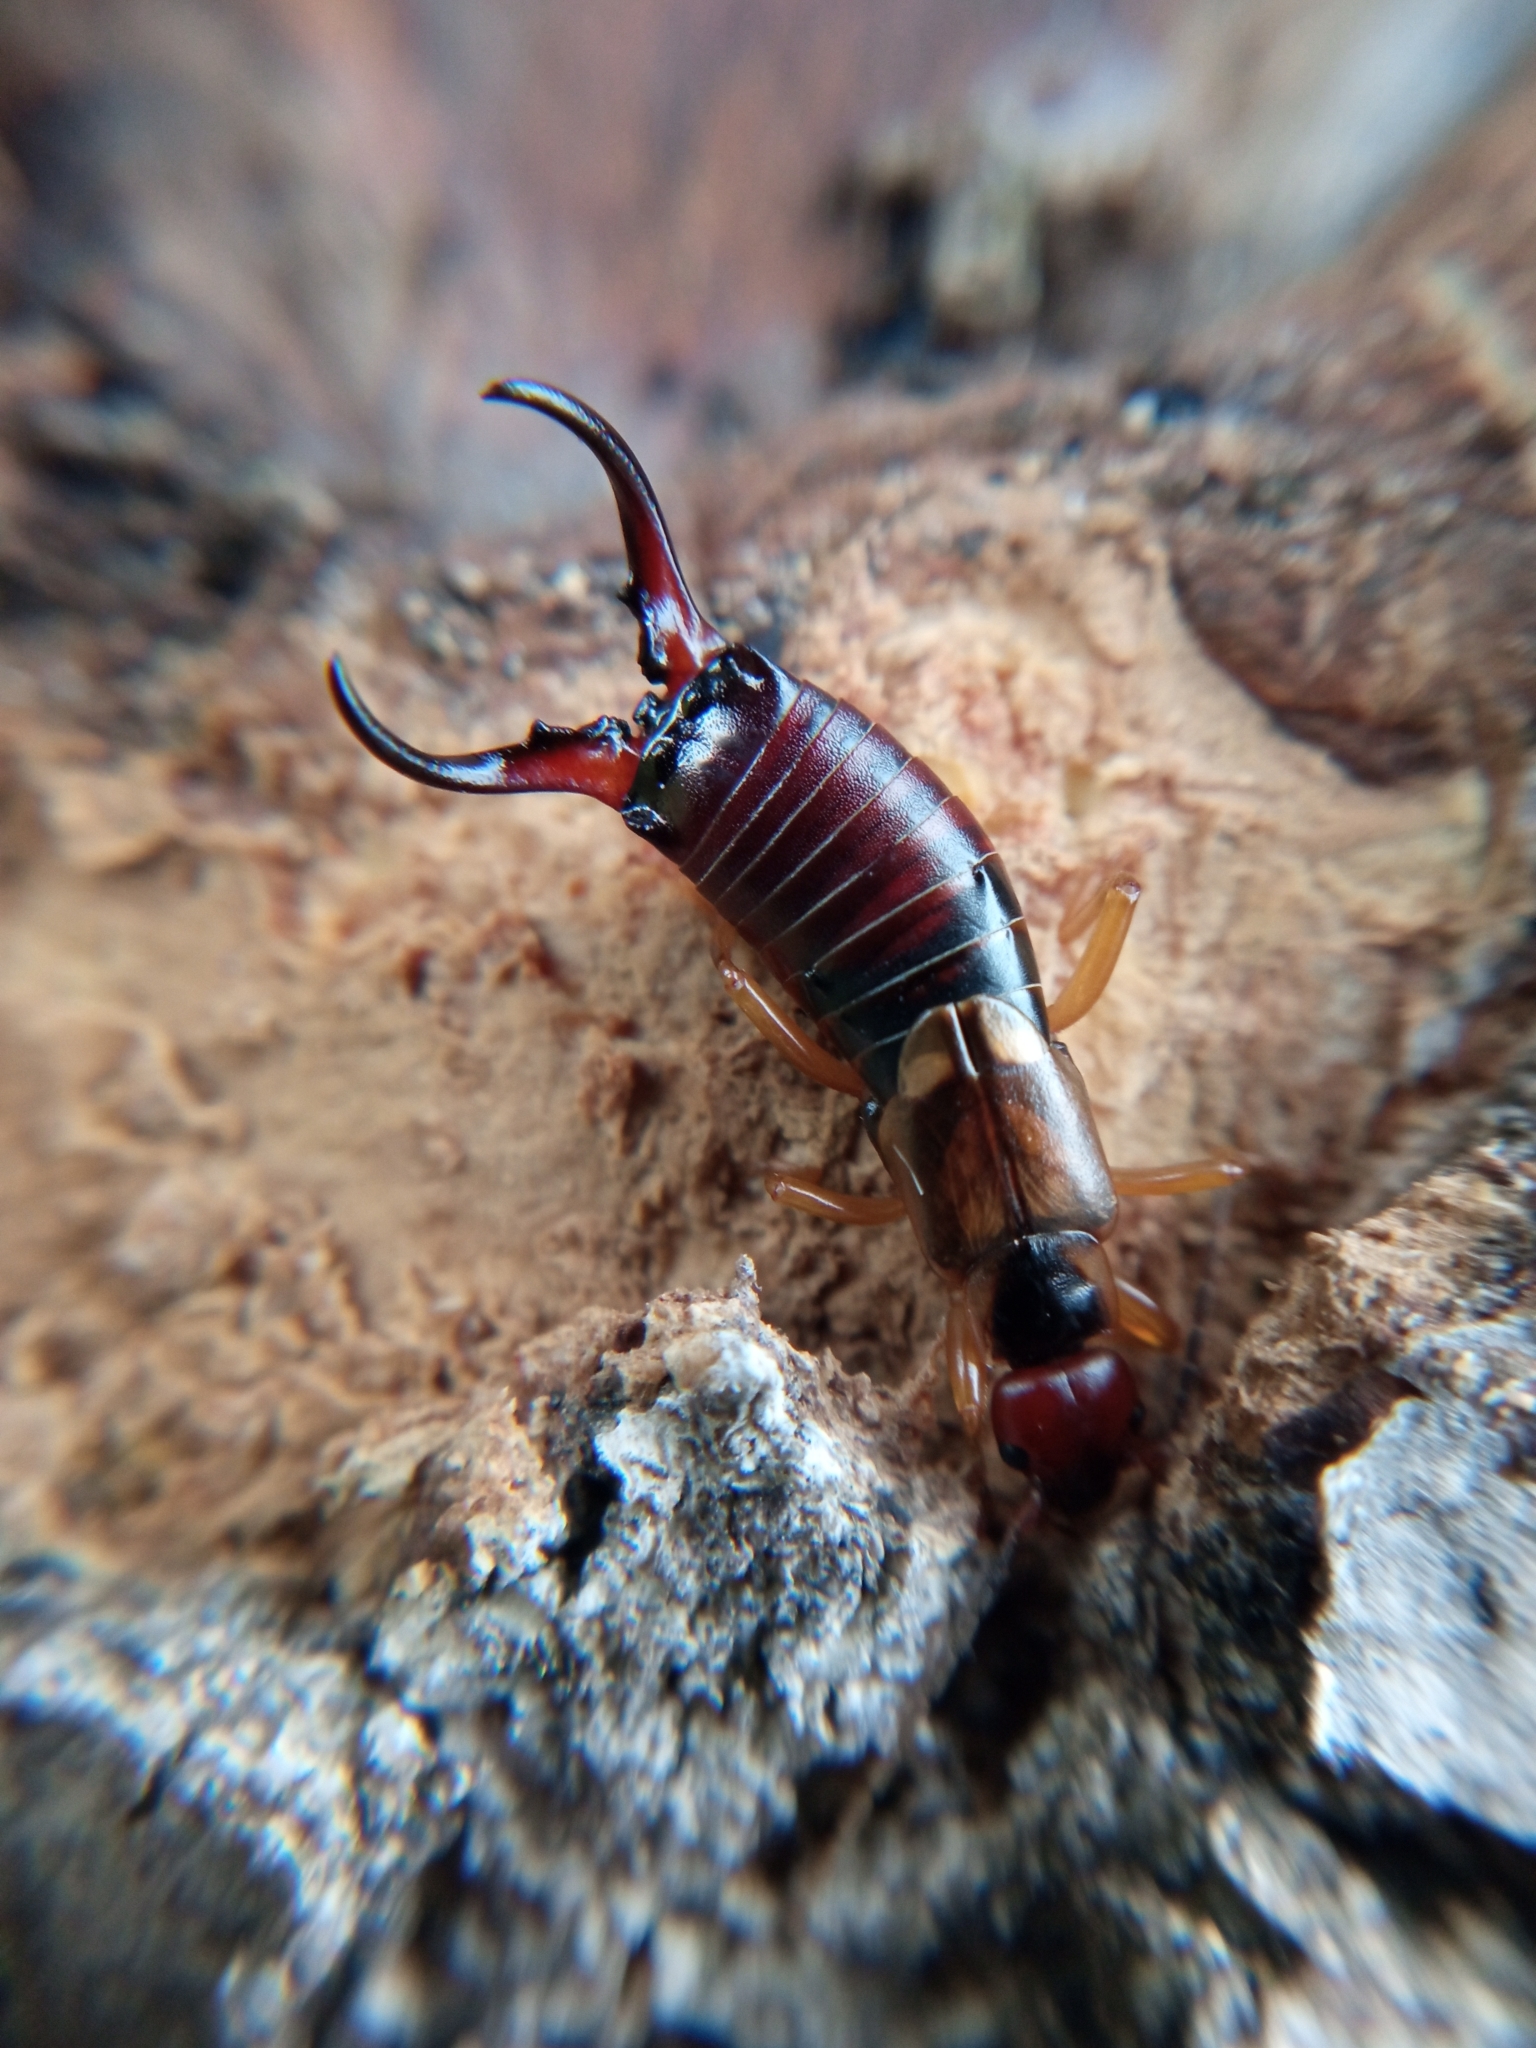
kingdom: Animalia
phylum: Arthropoda
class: Insecta
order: Dermaptera
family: Forficulidae
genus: Forficula
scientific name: Forficula
